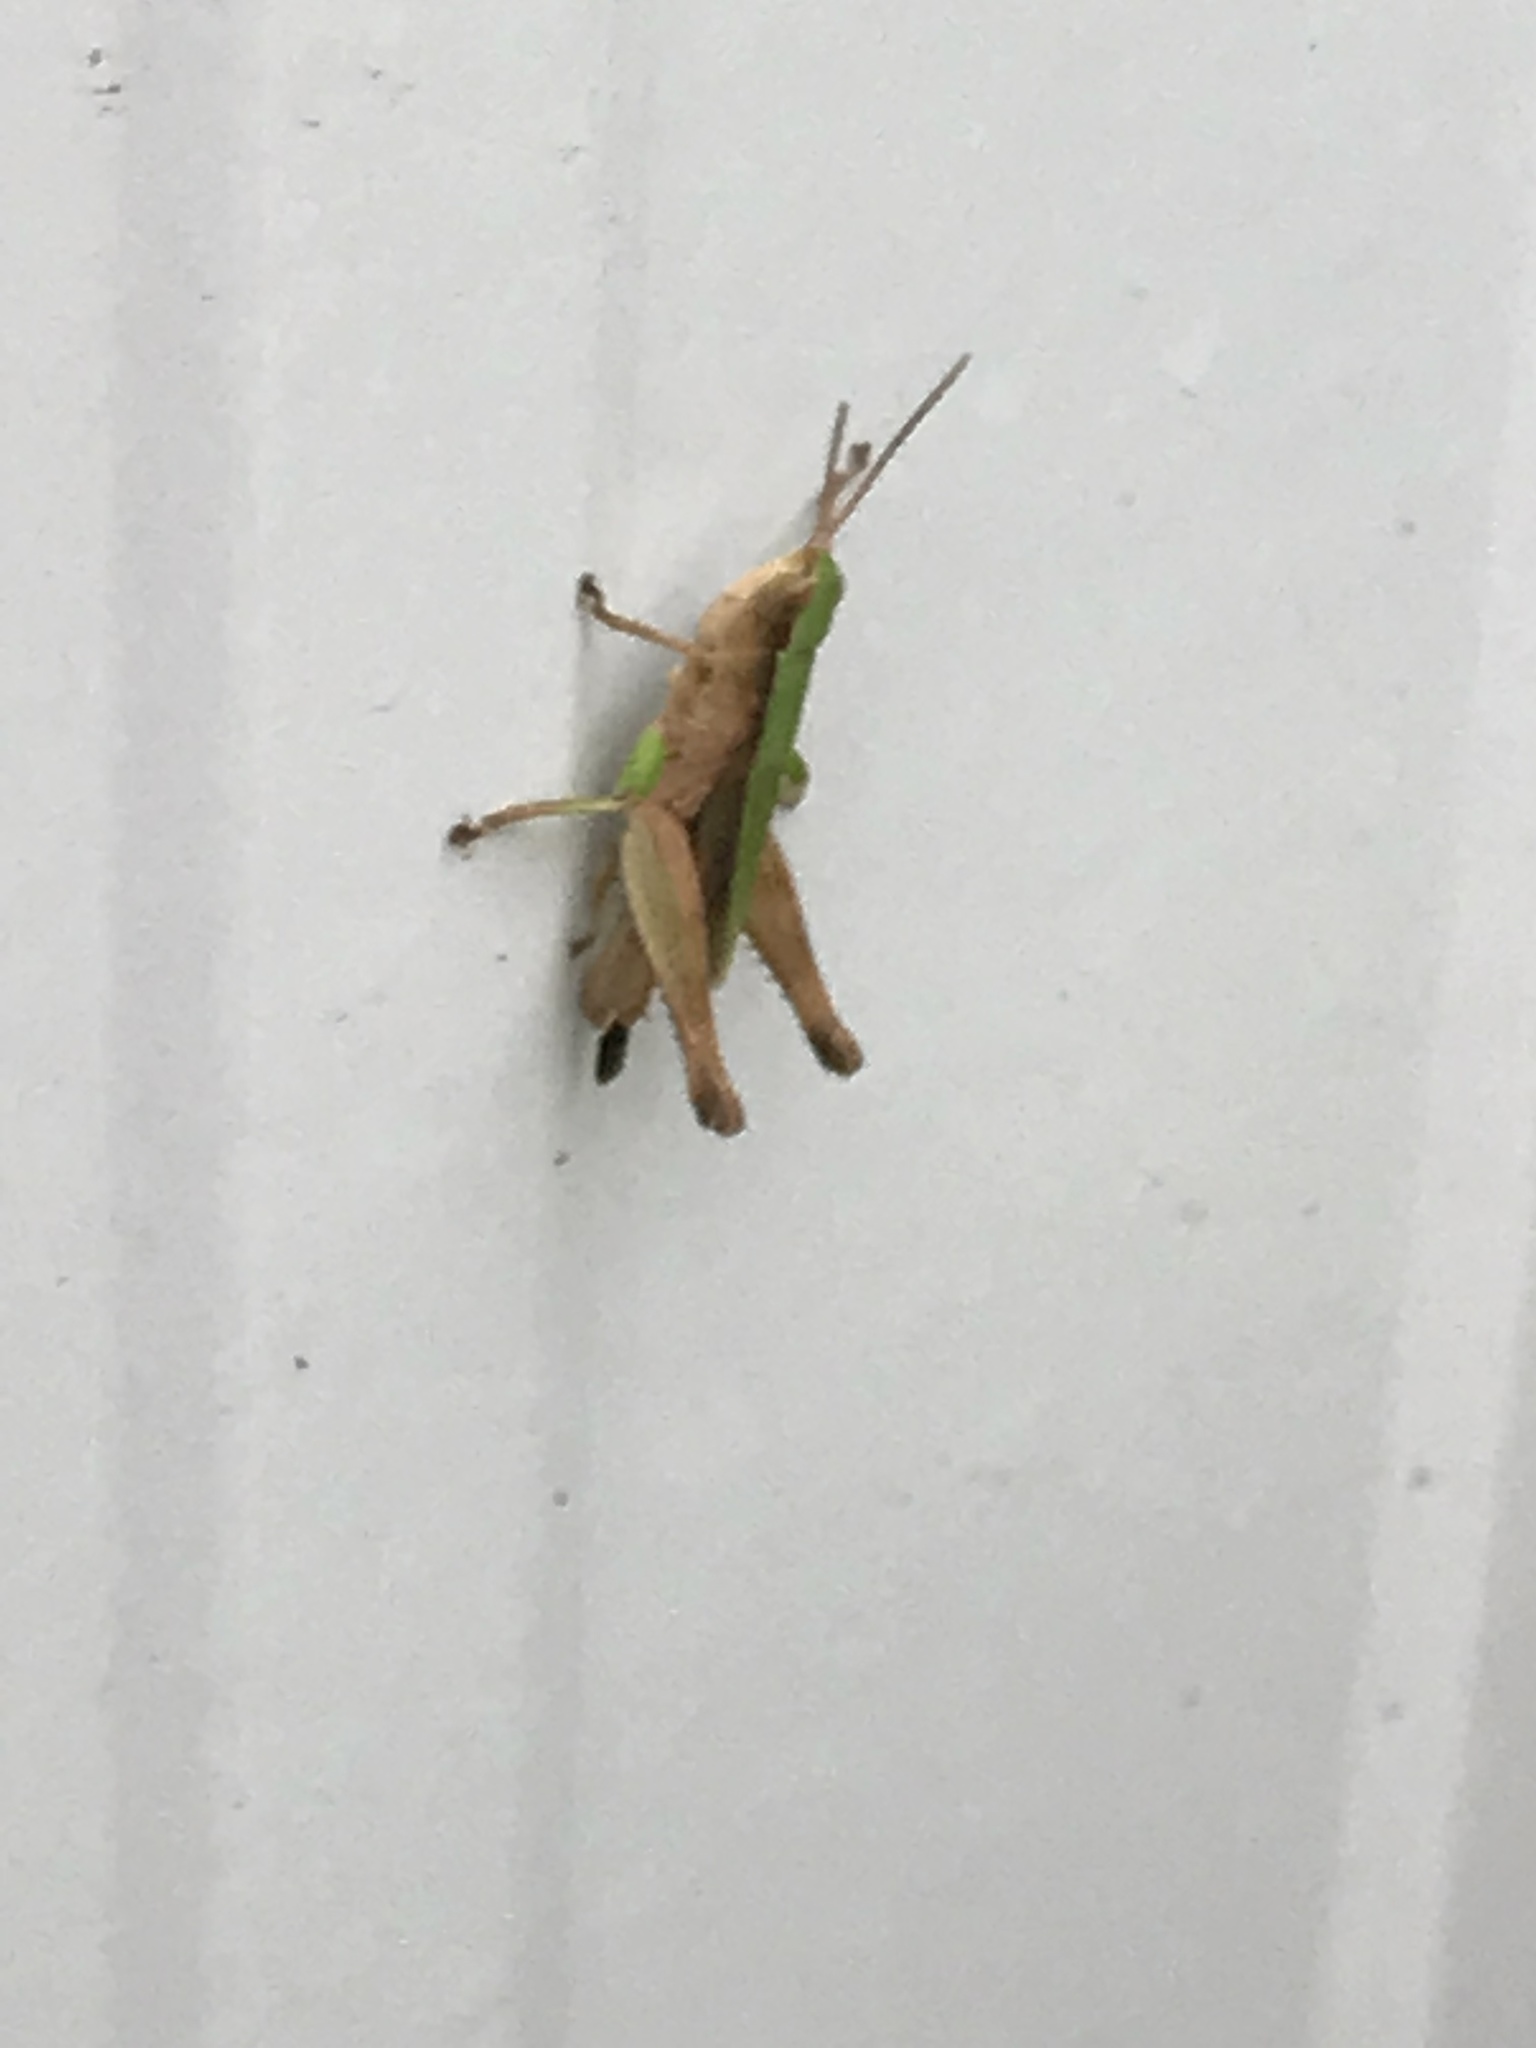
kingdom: Animalia
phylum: Arthropoda
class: Insecta
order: Orthoptera
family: Acrididae
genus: Dichromorpha
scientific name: Dichromorpha viridis
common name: Short-winged green grasshopper
